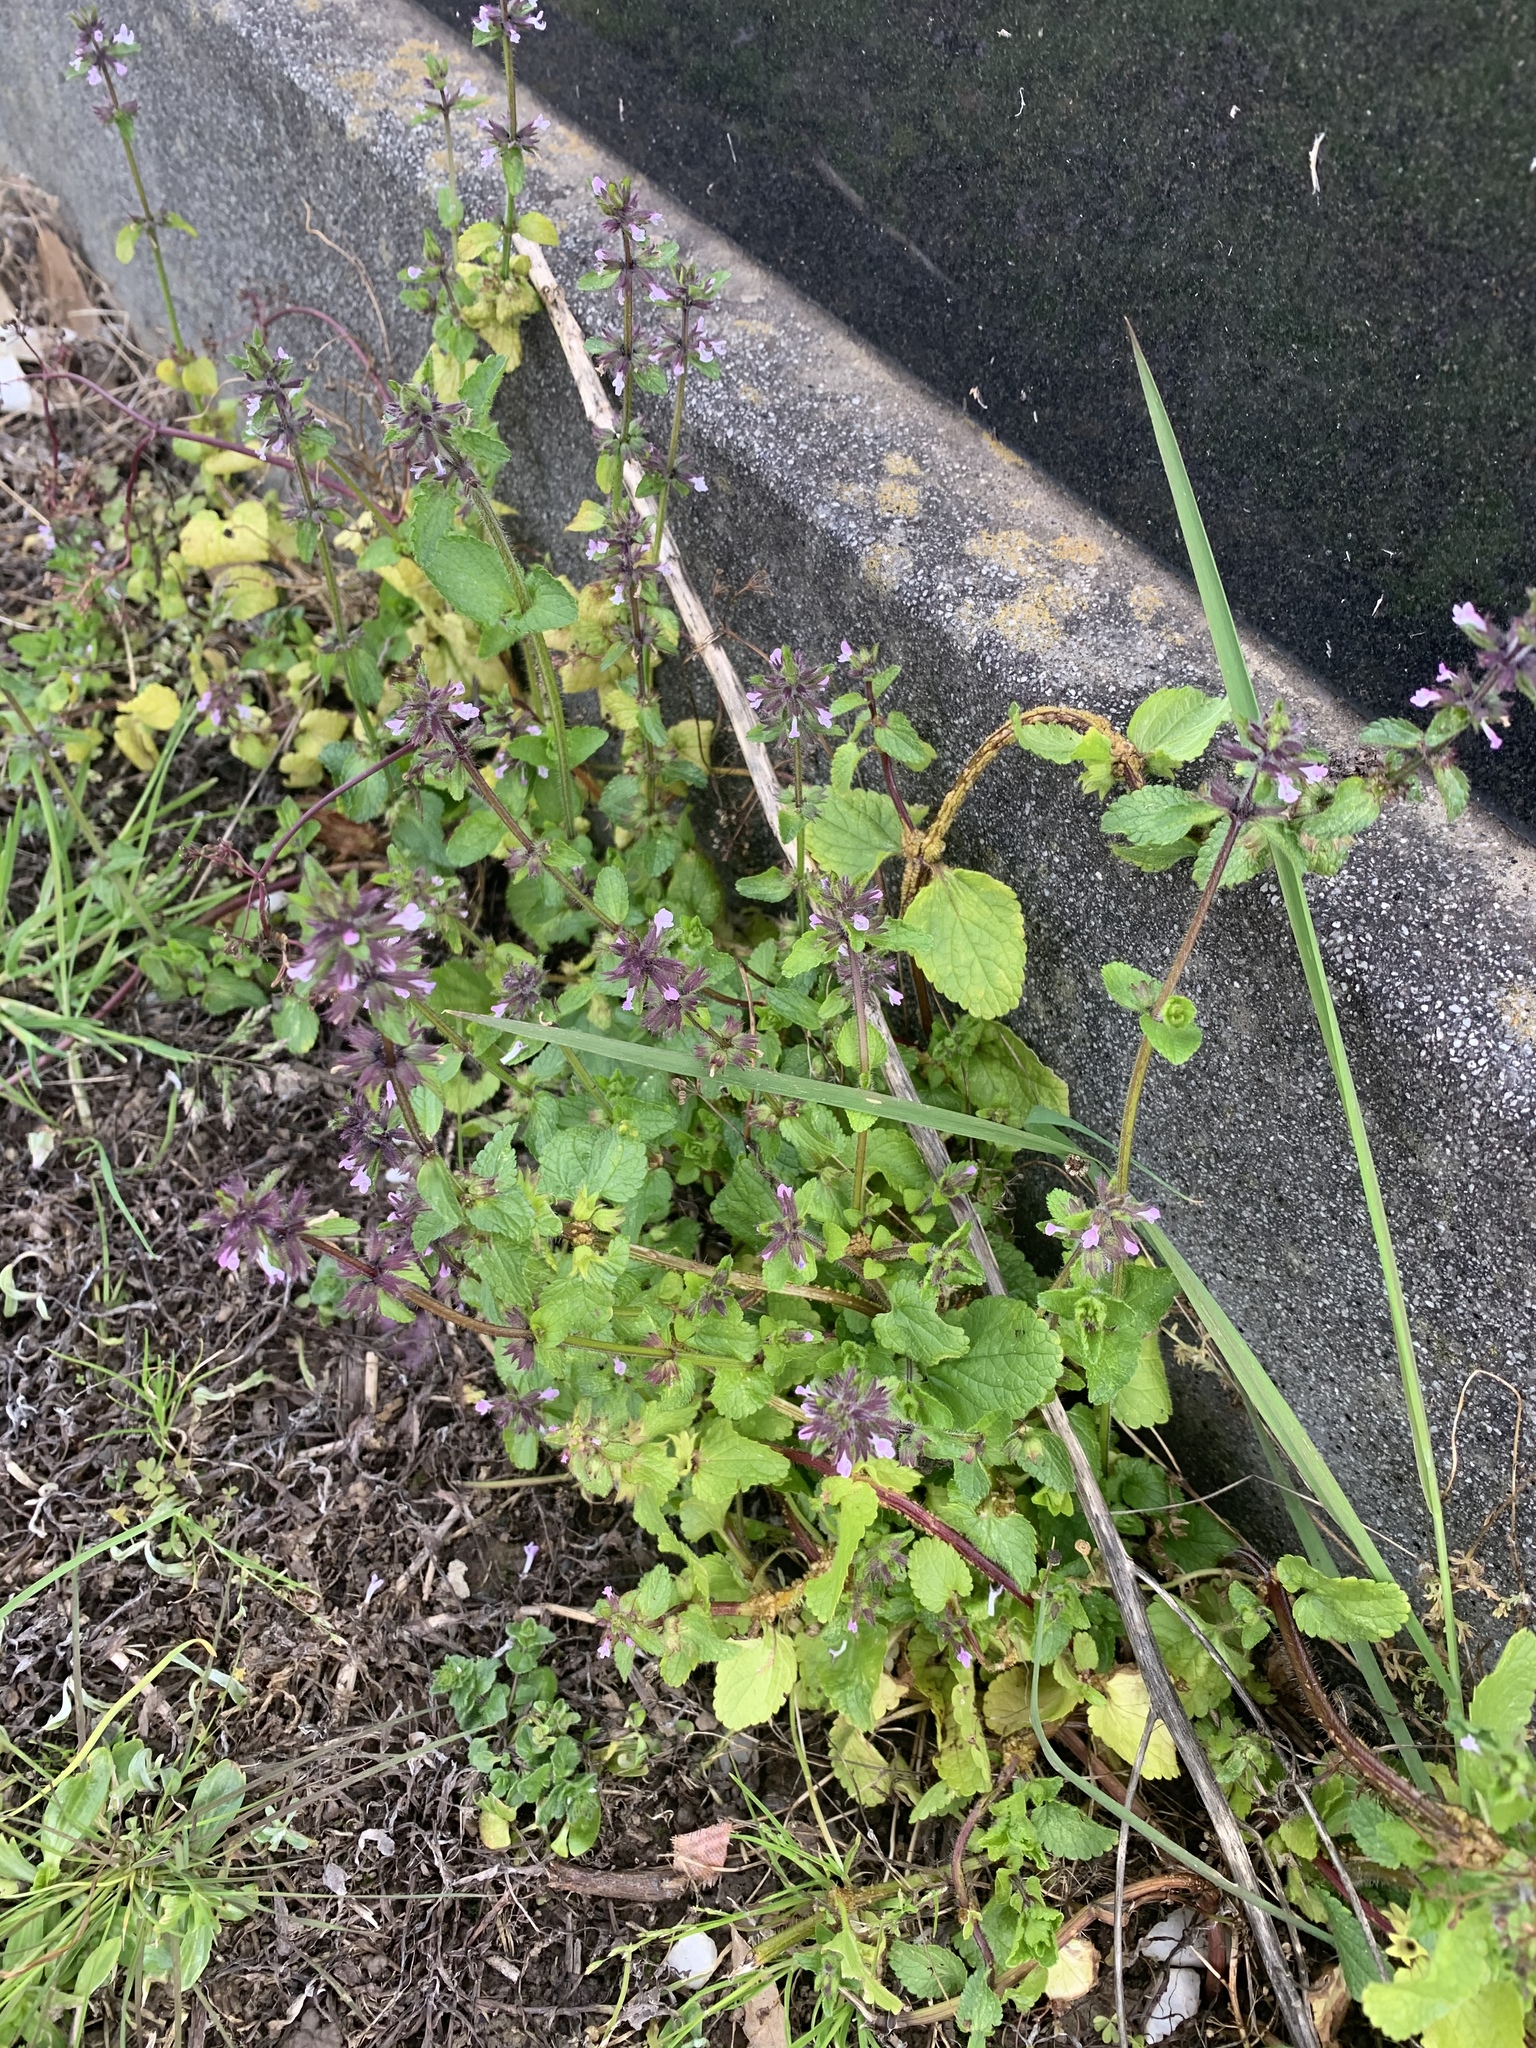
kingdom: Plantae
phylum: Tracheophyta
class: Magnoliopsida
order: Lamiales
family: Lamiaceae
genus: Stachys
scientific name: Stachys arvensis
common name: Field woundwort
